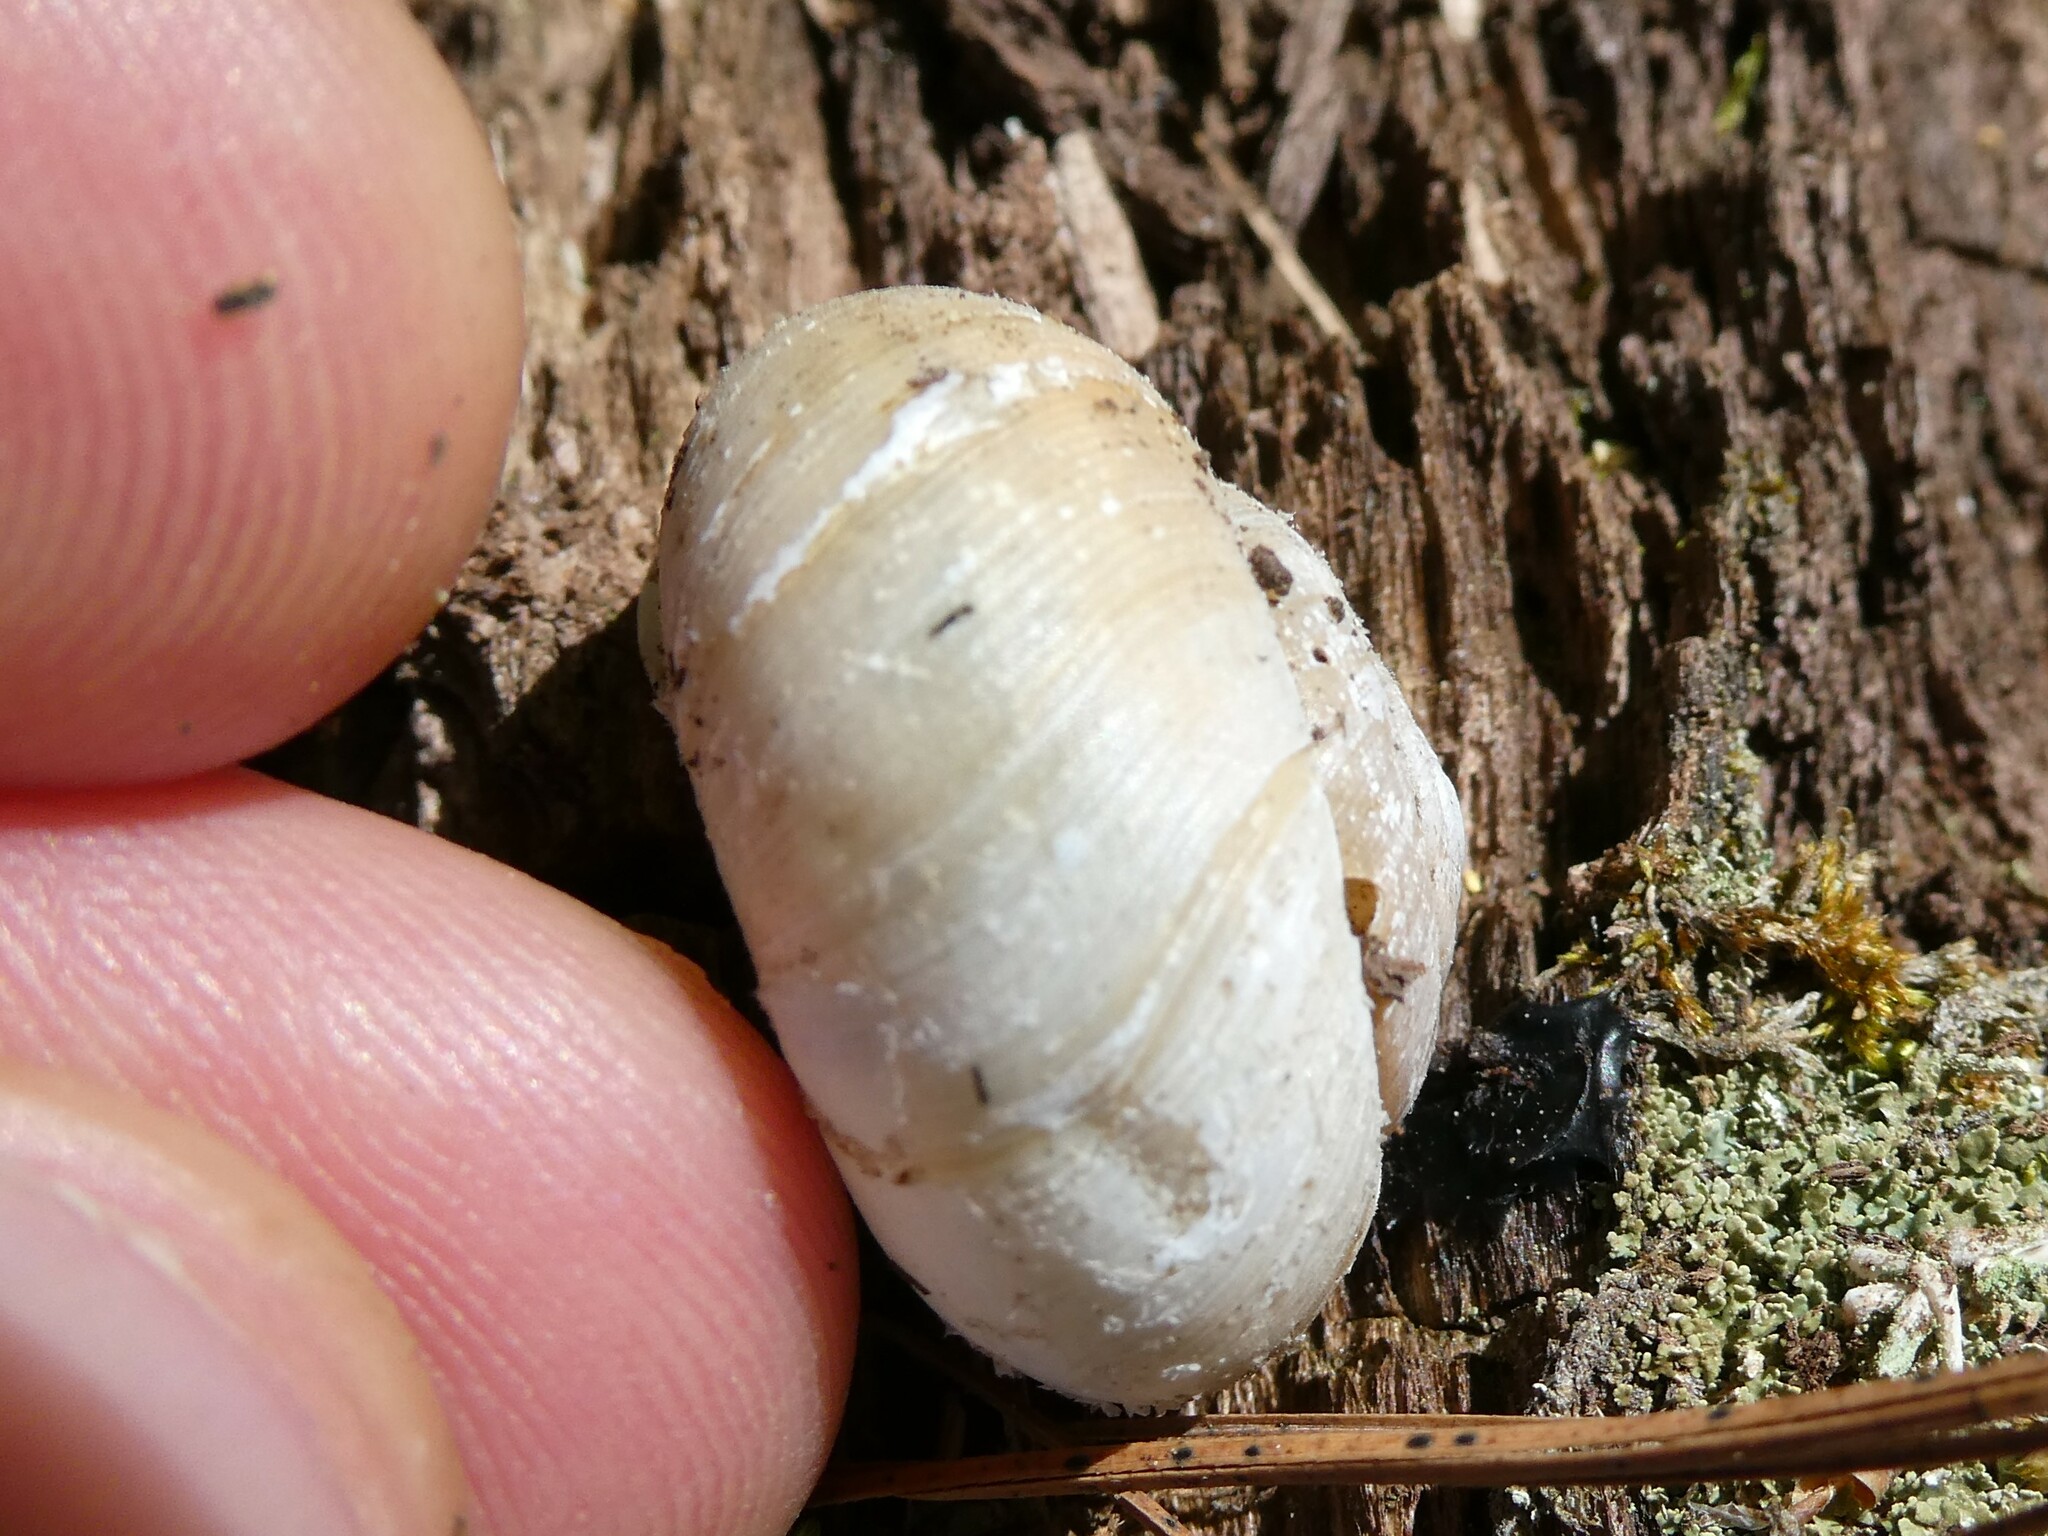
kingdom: Animalia
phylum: Mollusca
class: Gastropoda
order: Stylommatophora
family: Polygyridae
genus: Neohelix
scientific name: Neohelix albolabris
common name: Eastern whitelip
